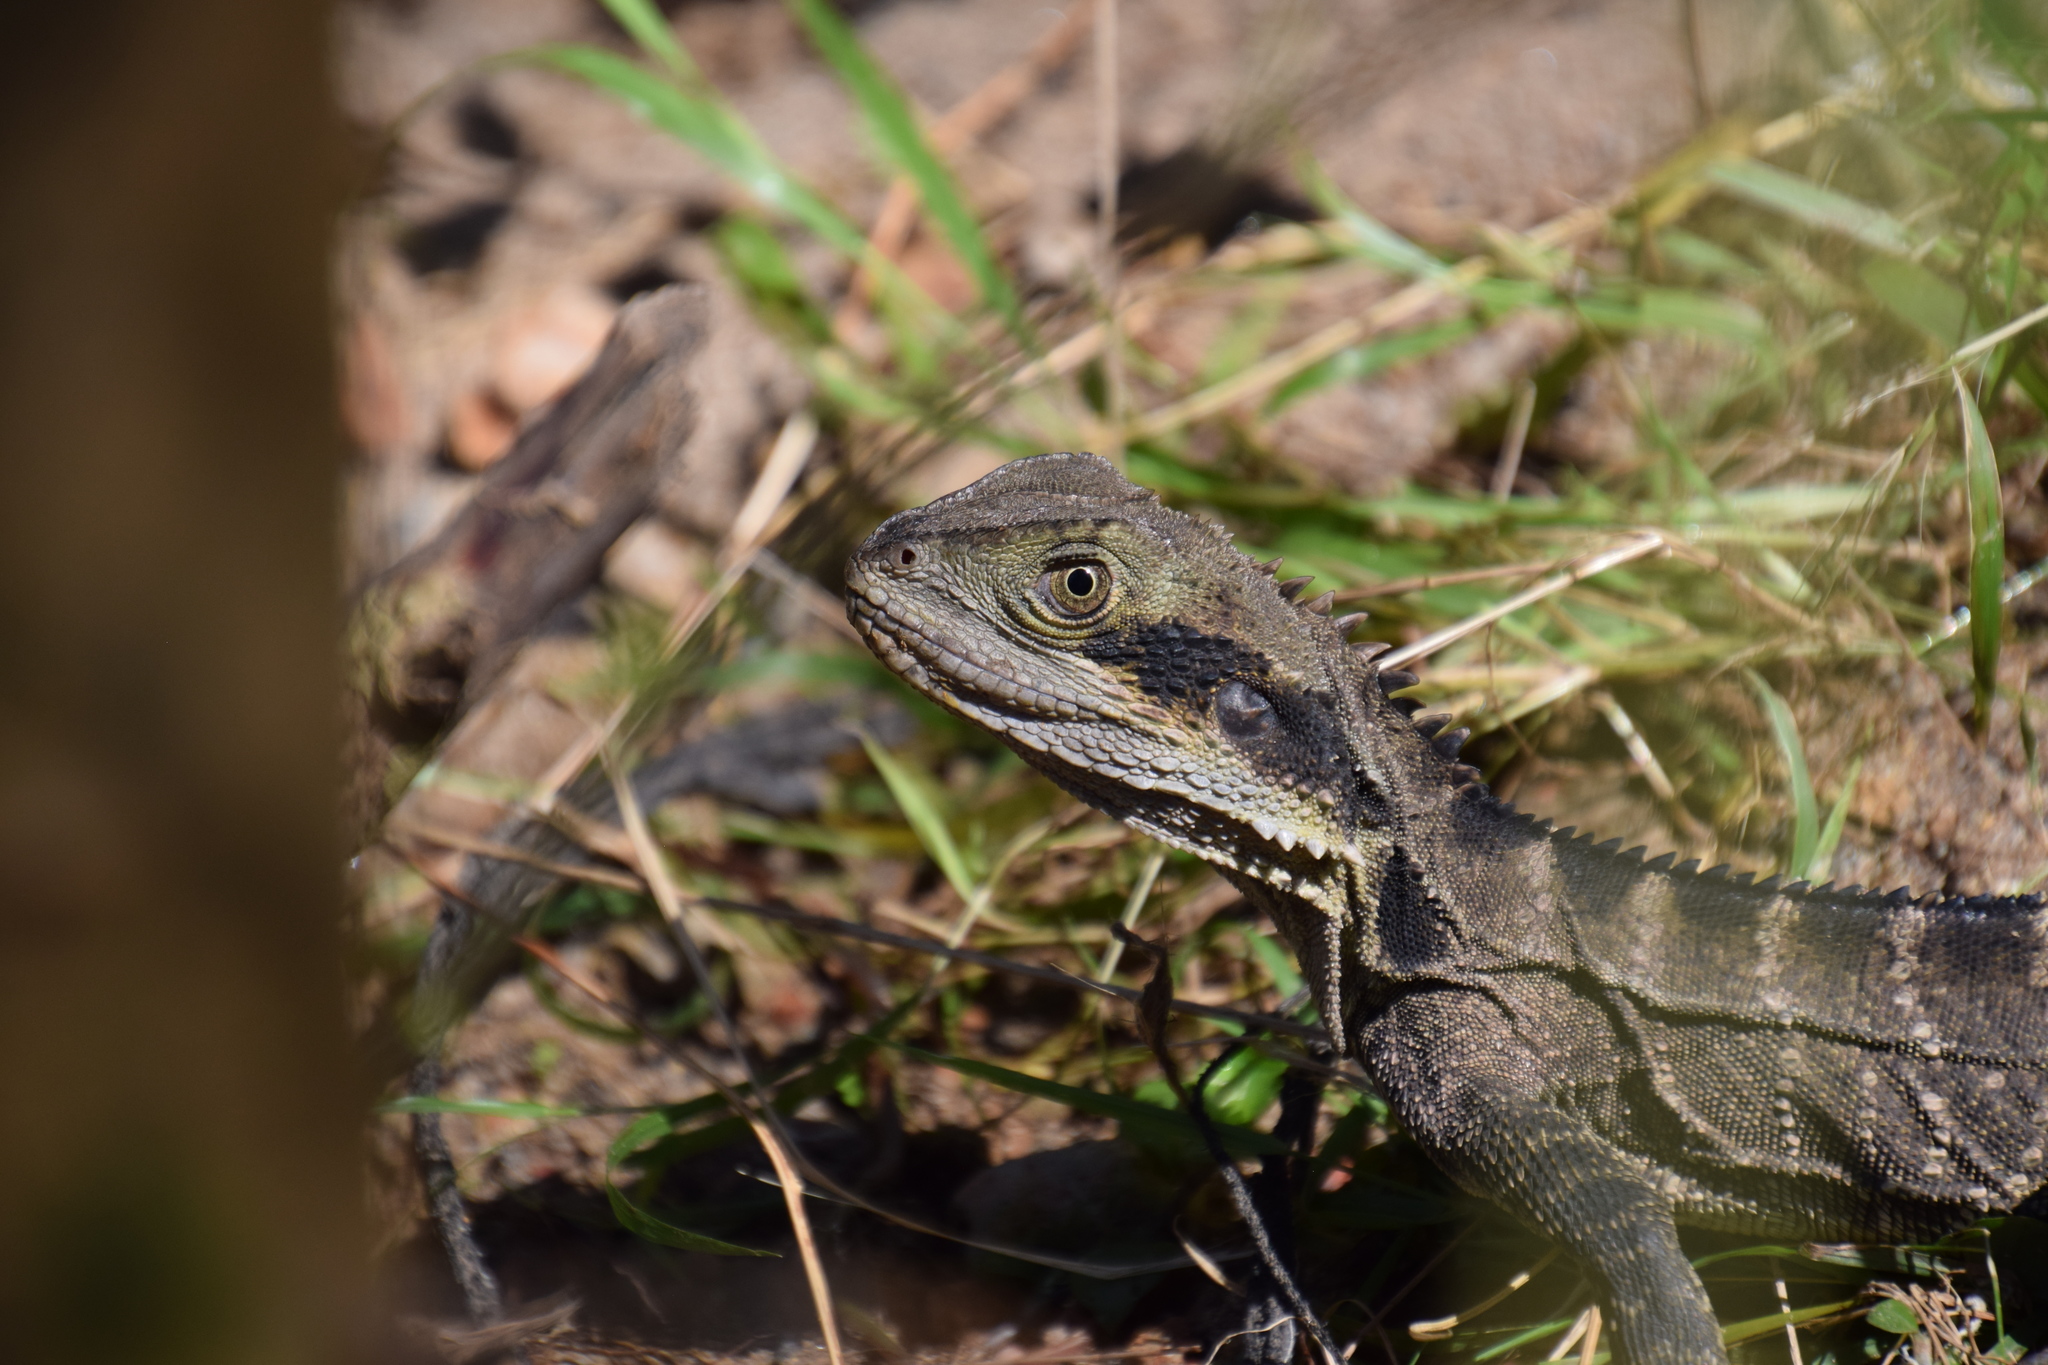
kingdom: Animalia
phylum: Chordata
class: Squamata
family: Agamidae
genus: Intellagama
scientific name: Intellagama lesueurii
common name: Eastern water dragon
